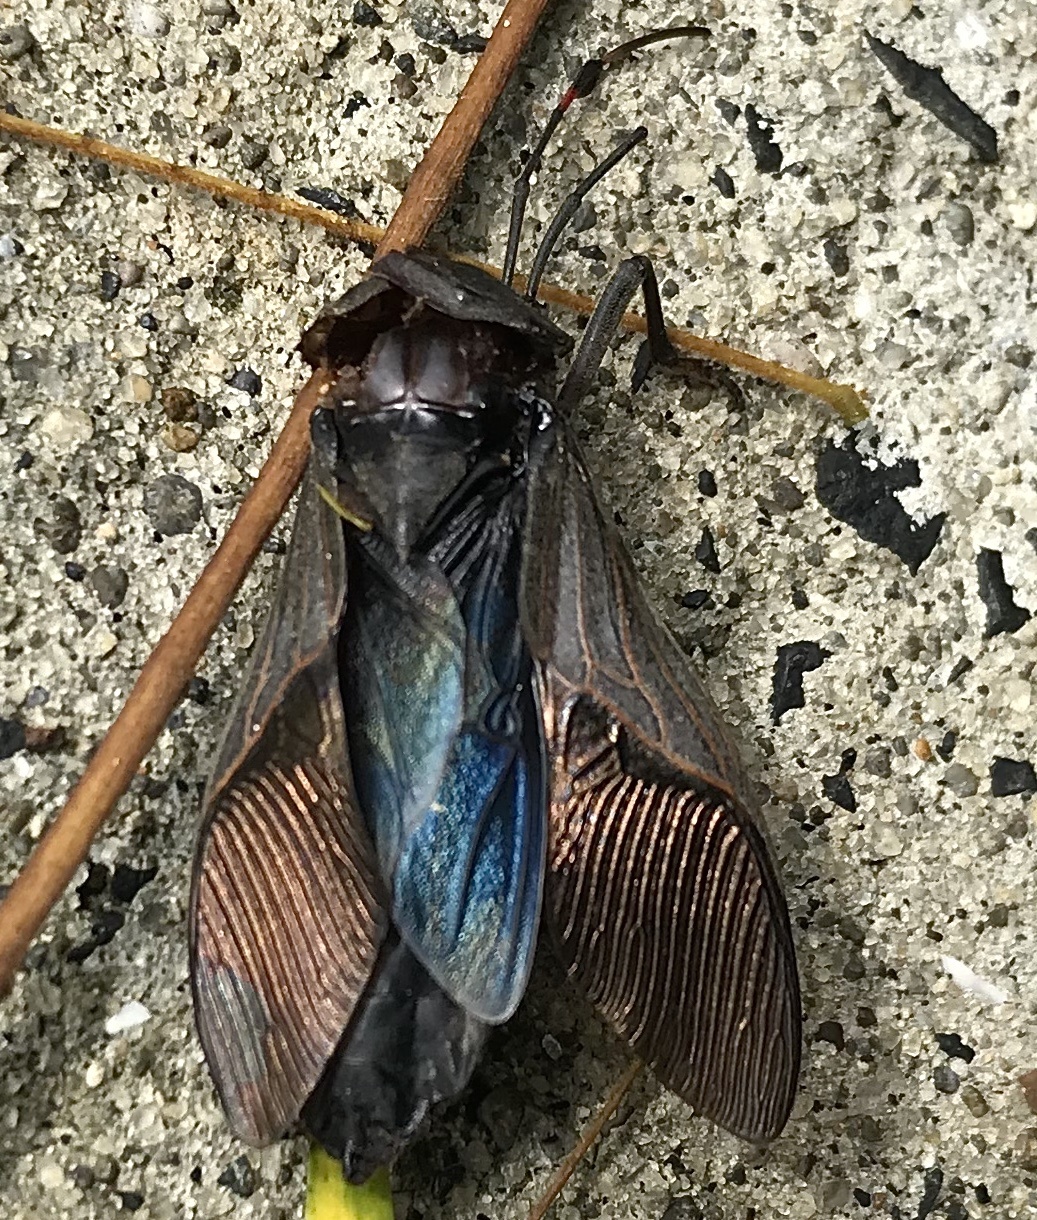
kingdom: Animalia
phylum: Arthropoda
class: Insecta
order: Hemiptera
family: Coreidae
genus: Pachylis
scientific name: Pachylis nervosus
